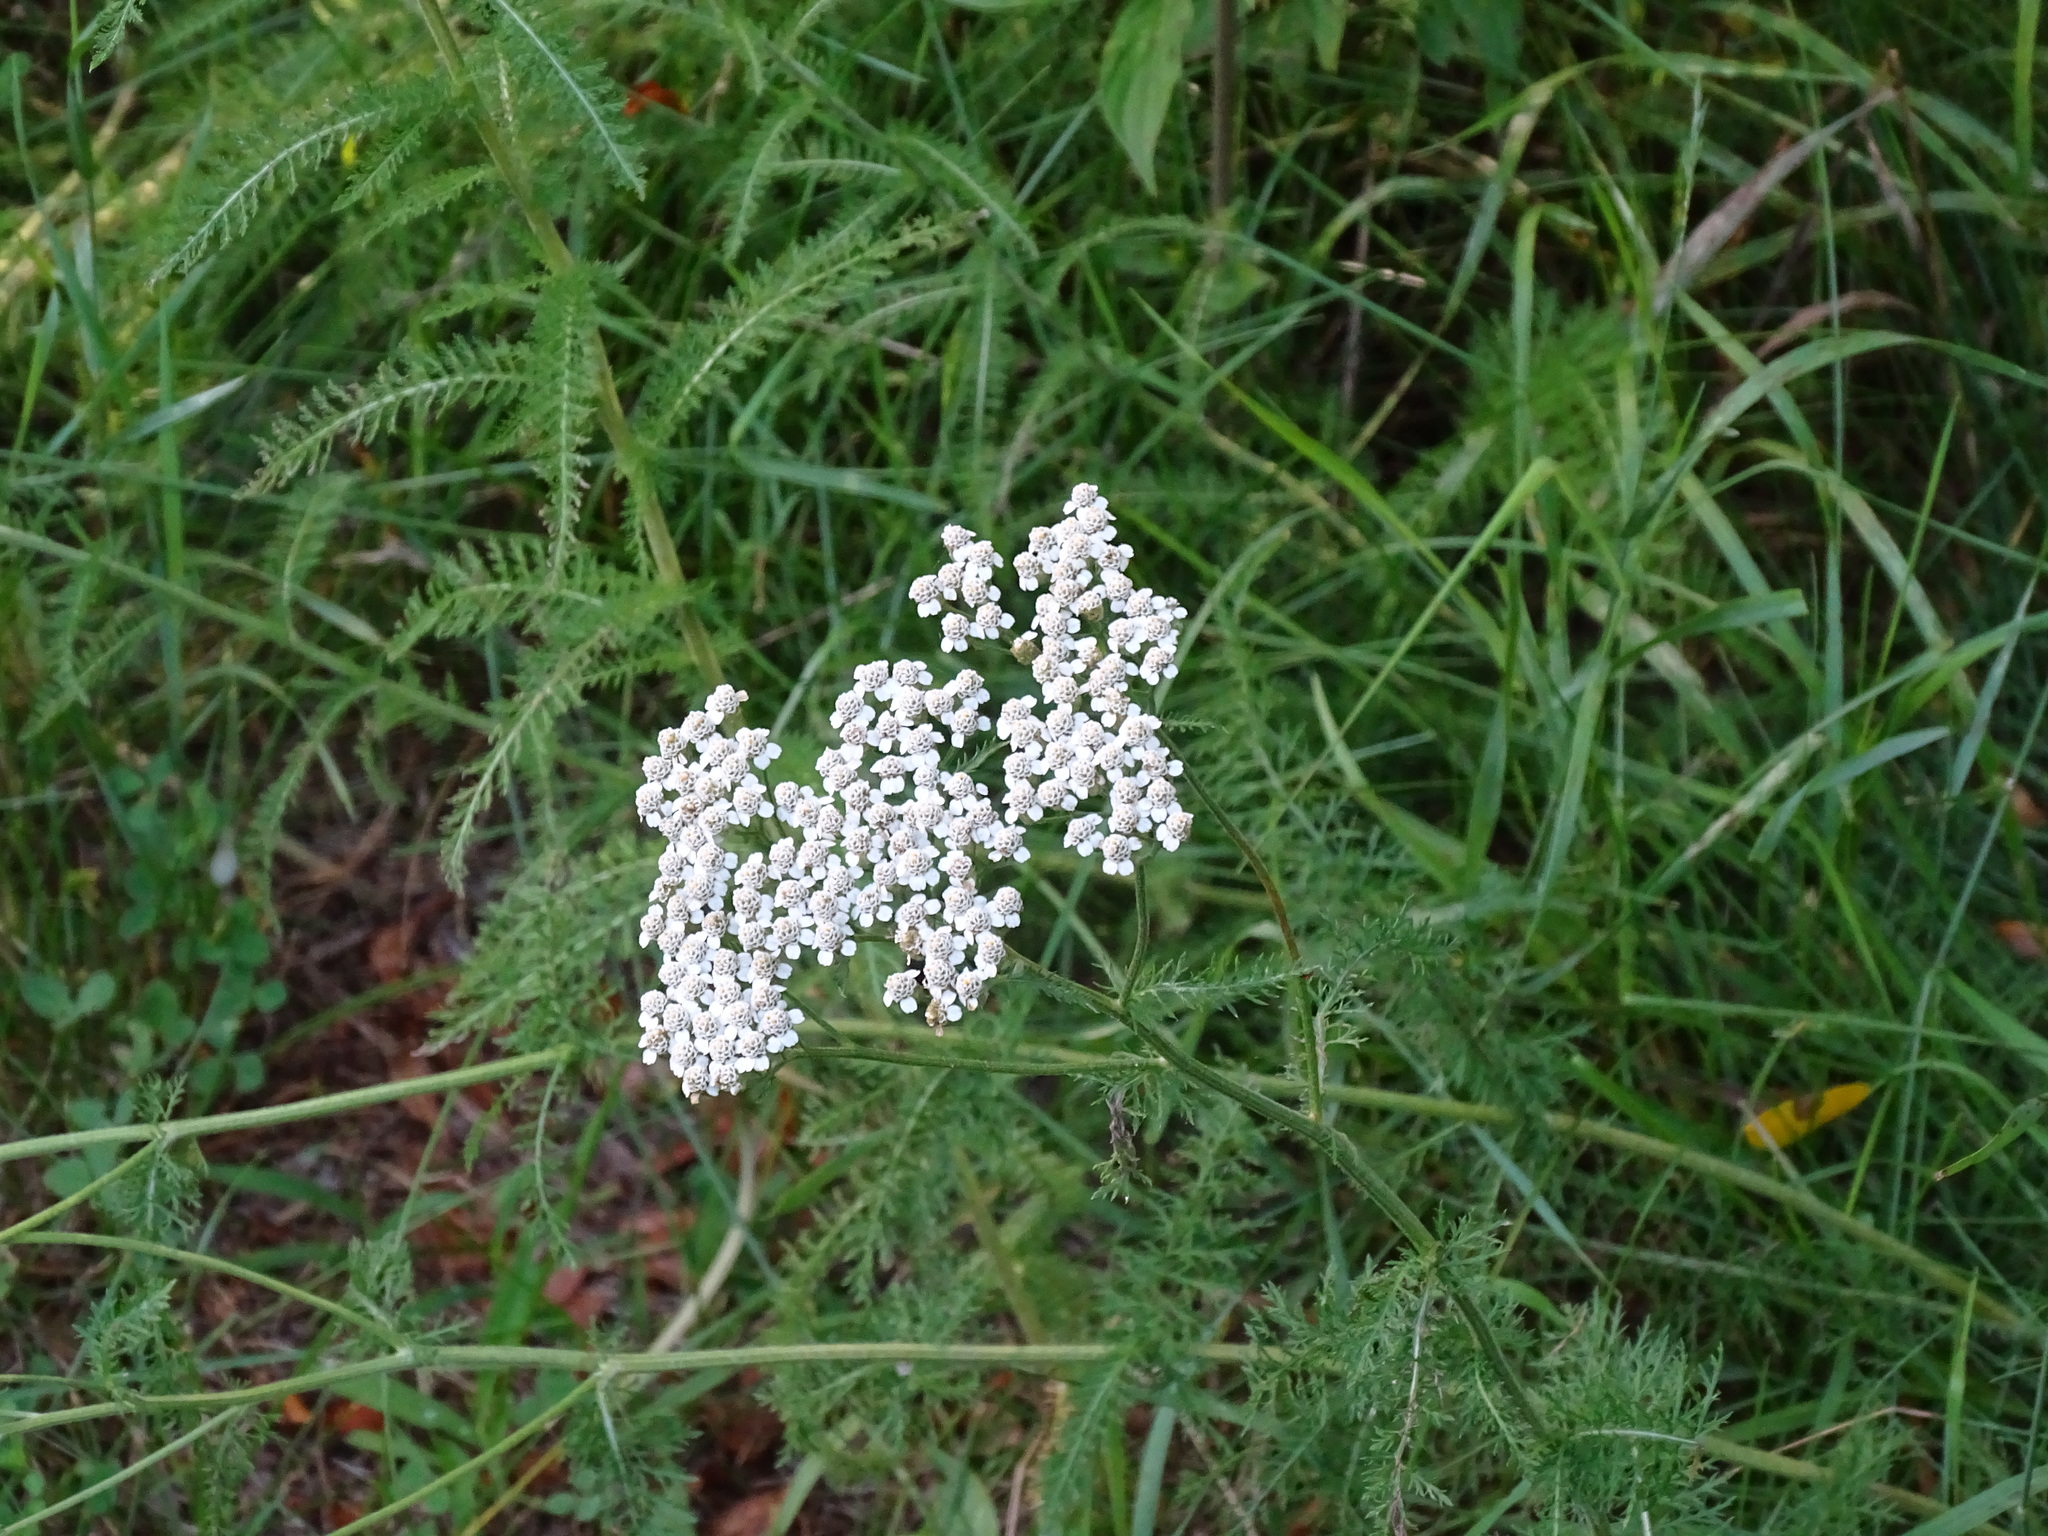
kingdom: Plantae
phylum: Tracheophyta
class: Magnoliopsida
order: Asterales
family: Asteraceae
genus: Achillea
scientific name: Achillea millefolium
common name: Yarrow
